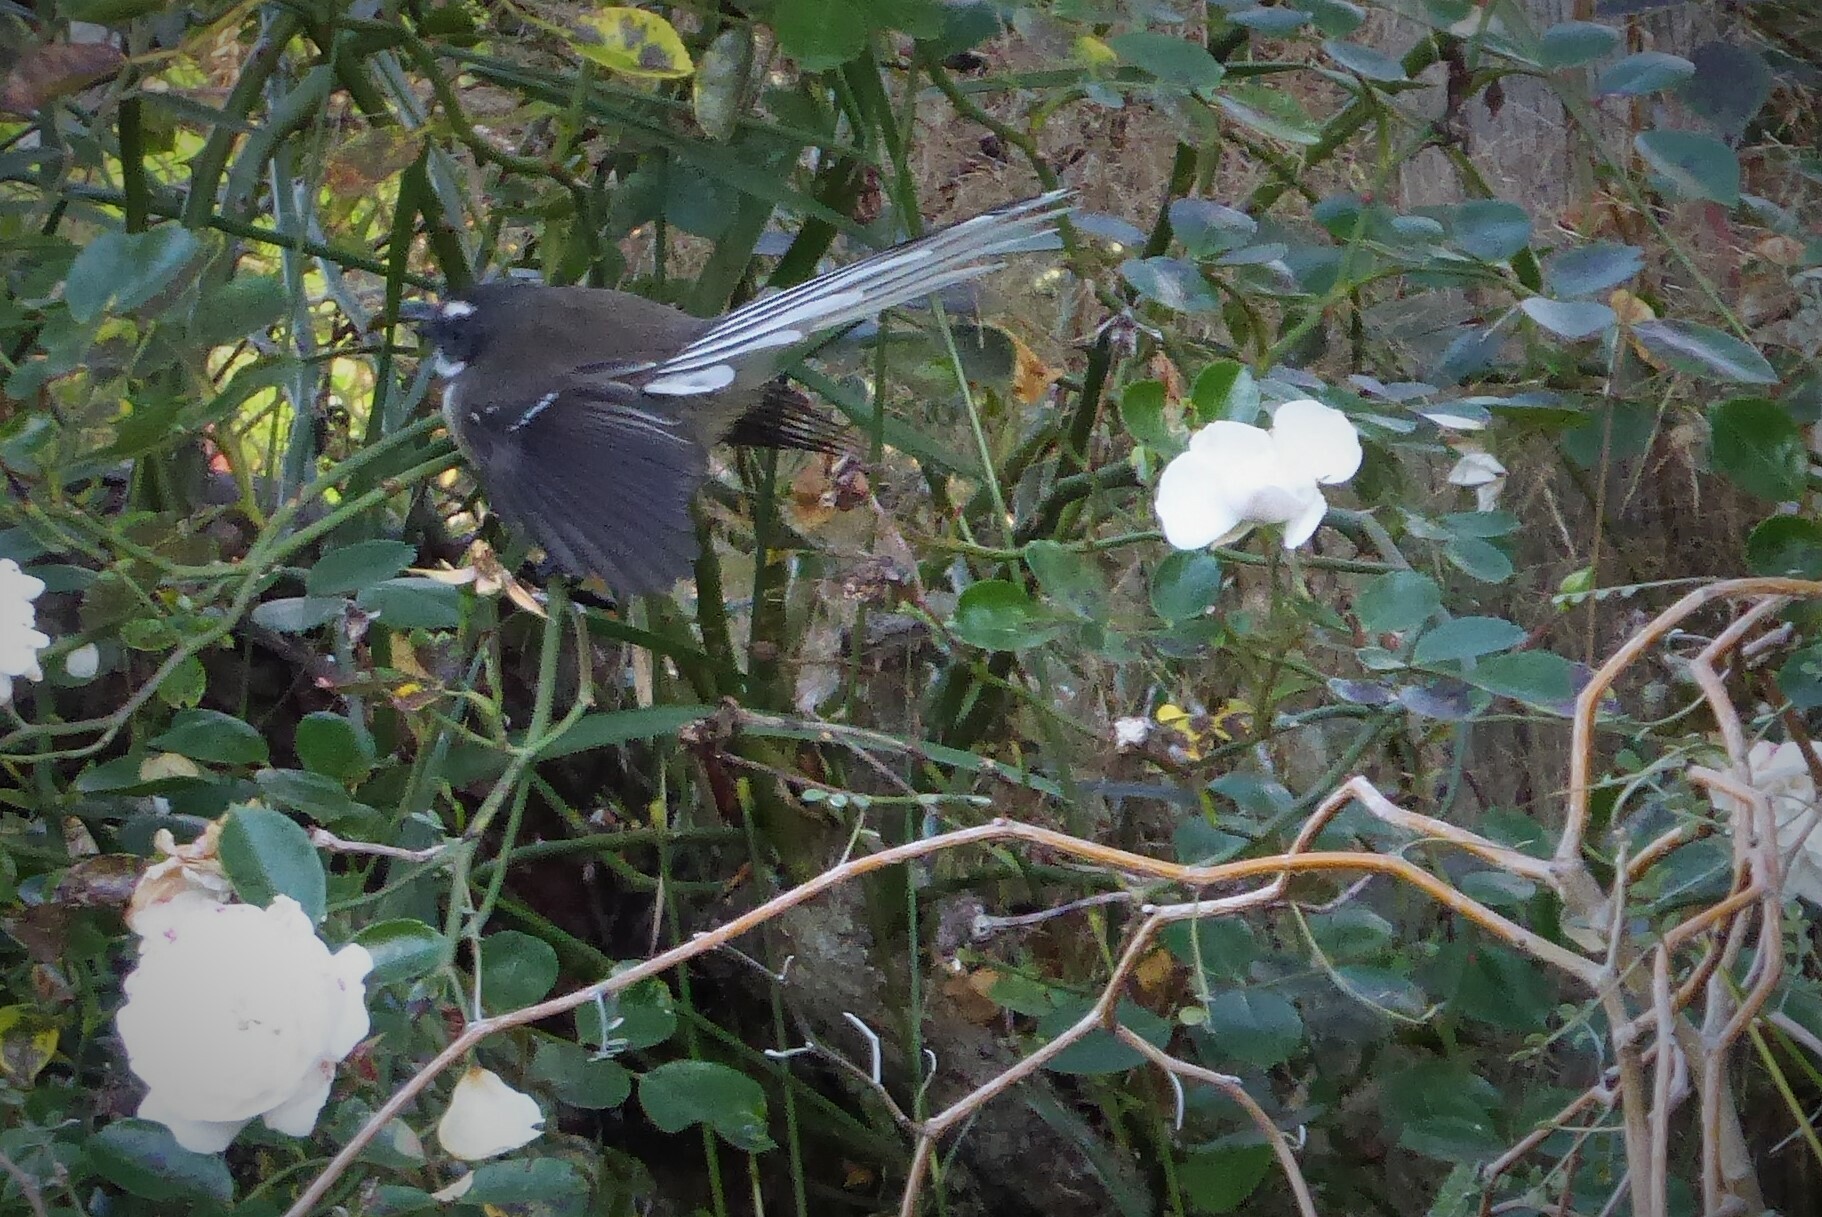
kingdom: Animalia
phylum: Chordata
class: Aves
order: Passeriformes
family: Rhipiduridae
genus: Rhipidura
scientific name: Rhipidura fuliginosa
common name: New zealand fantail
